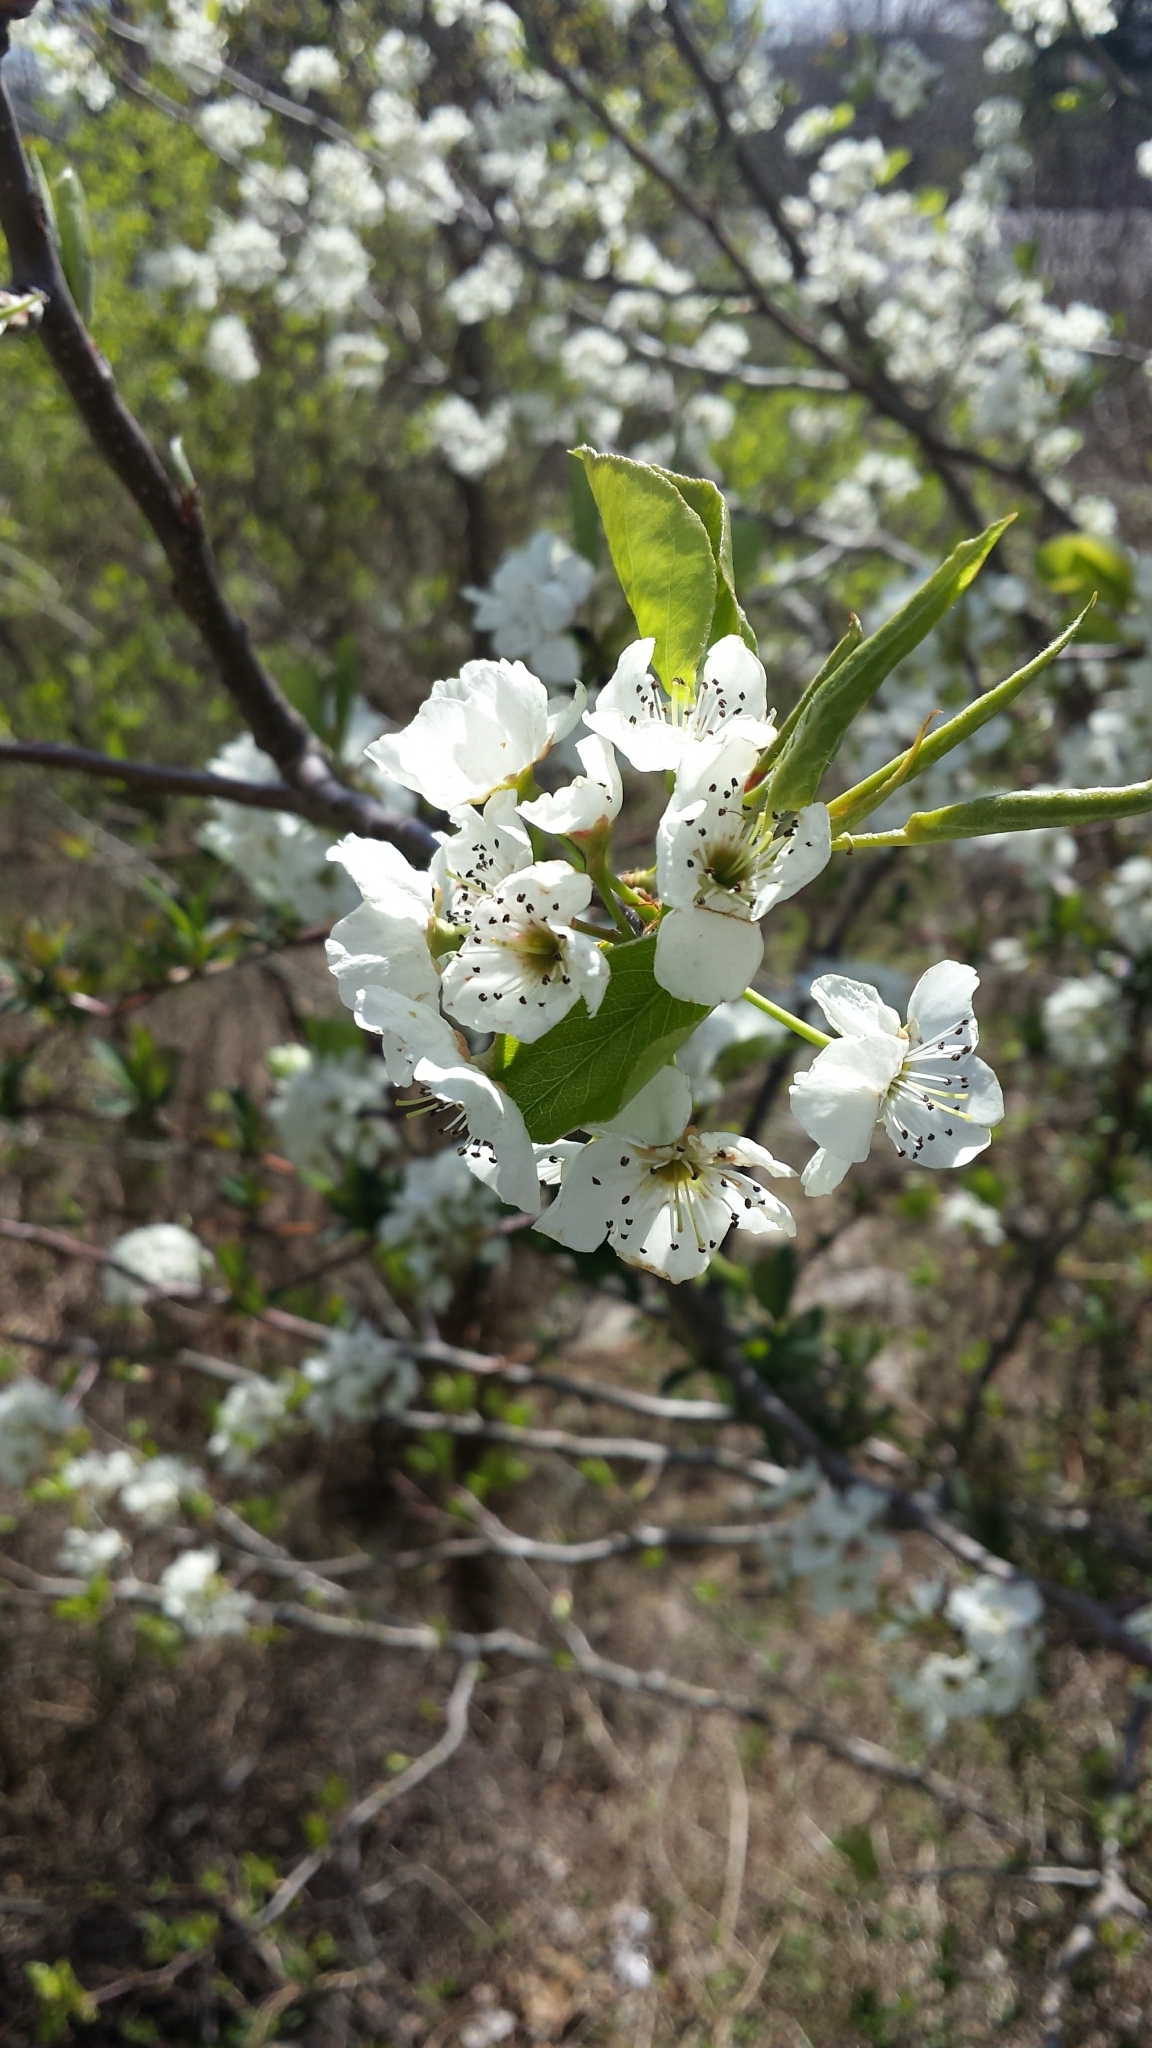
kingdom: Plantae
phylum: Tracheophyta
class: Magnoliopsida
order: Rosales
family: Rosaceae
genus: Pyrus
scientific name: Pyrus calleryana
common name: Callery pear
